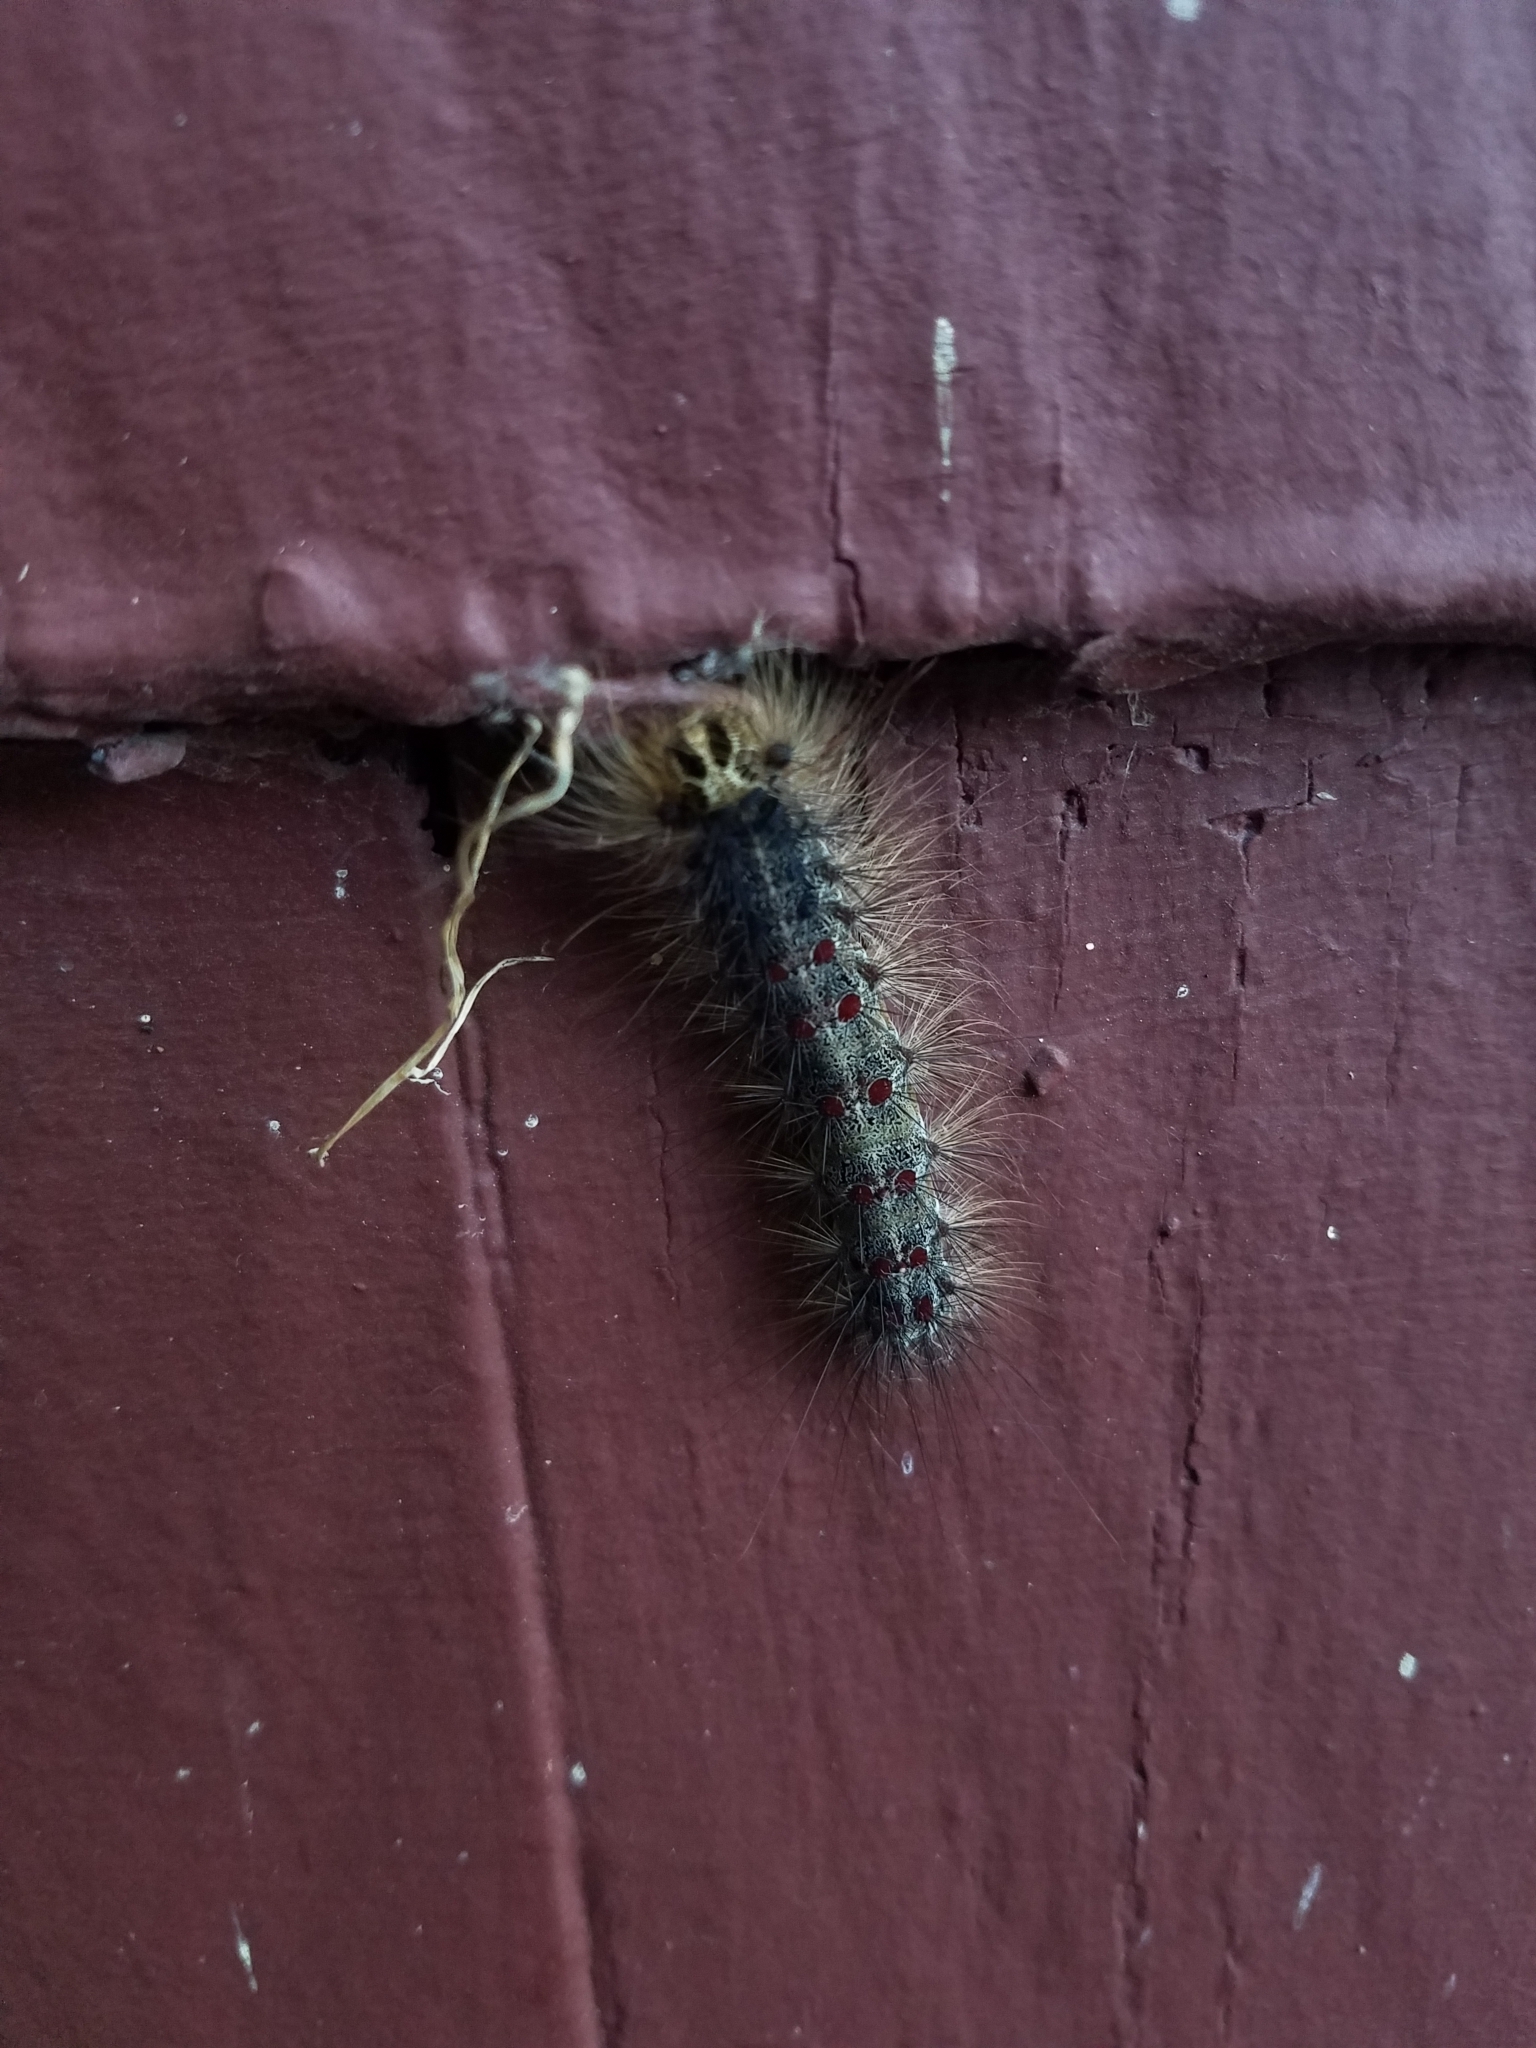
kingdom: Animalia
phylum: Arthropoda
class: Insecta
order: Lepidoptera
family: Erebidae
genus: Lymantria
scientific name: Lymantria dispar
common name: Gypsy moth
